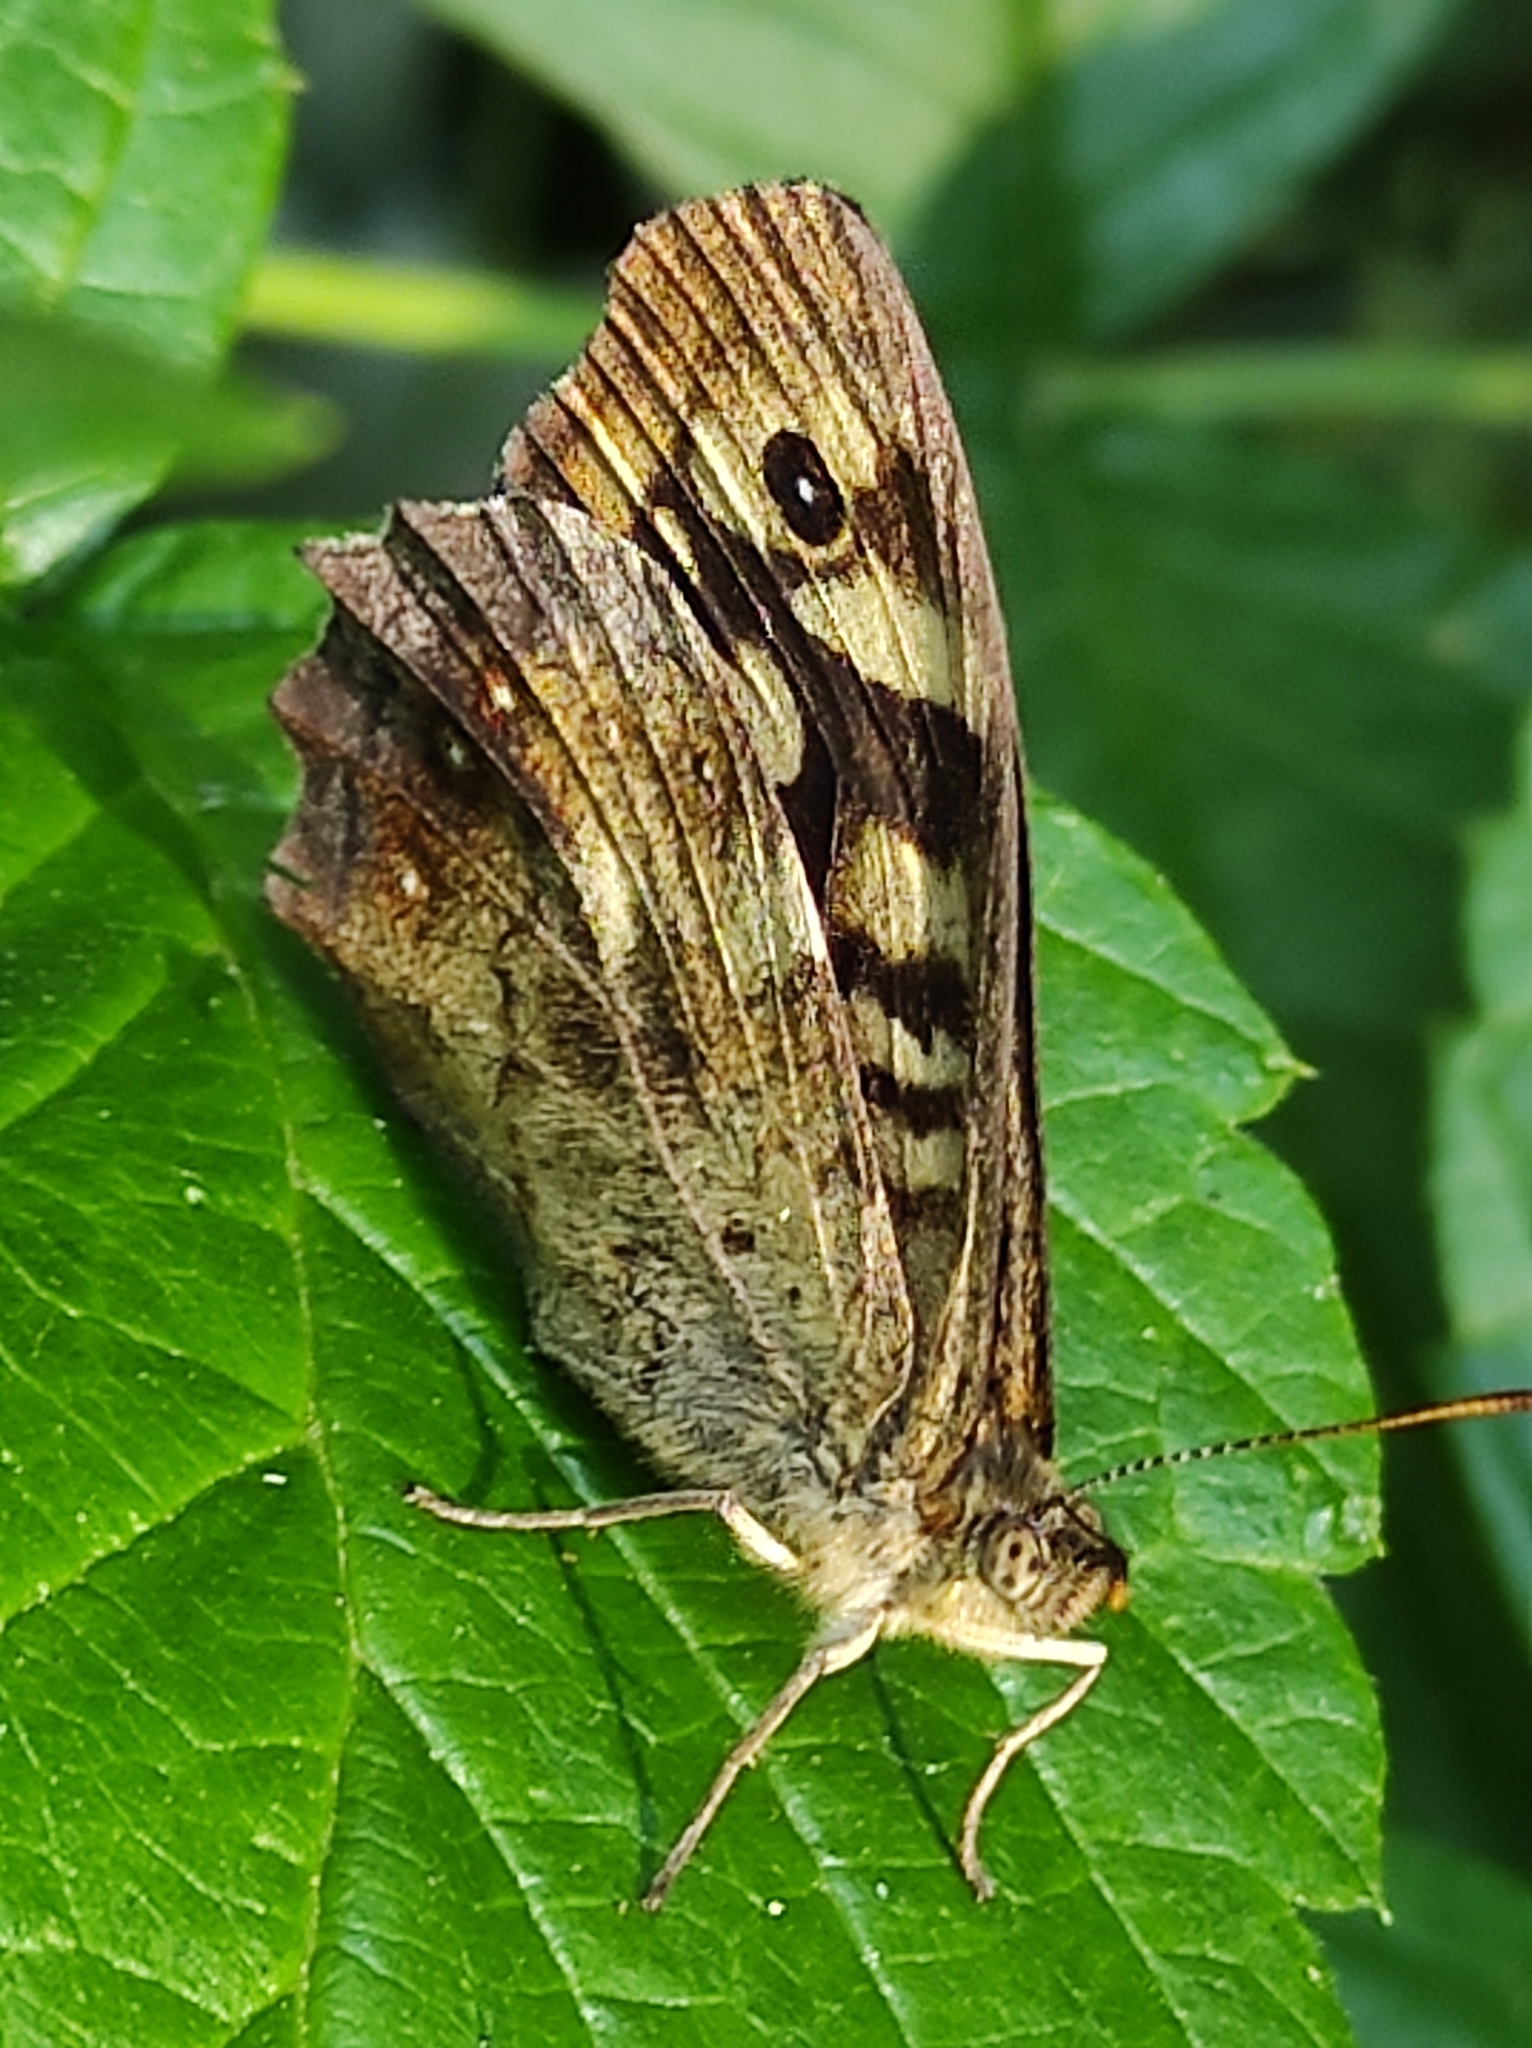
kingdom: Animalia
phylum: Arthropoda
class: Insecta
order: Lepidoptera
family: Nymphalidae
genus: Pararge
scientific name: Pararge aegeria
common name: Speckled wood
